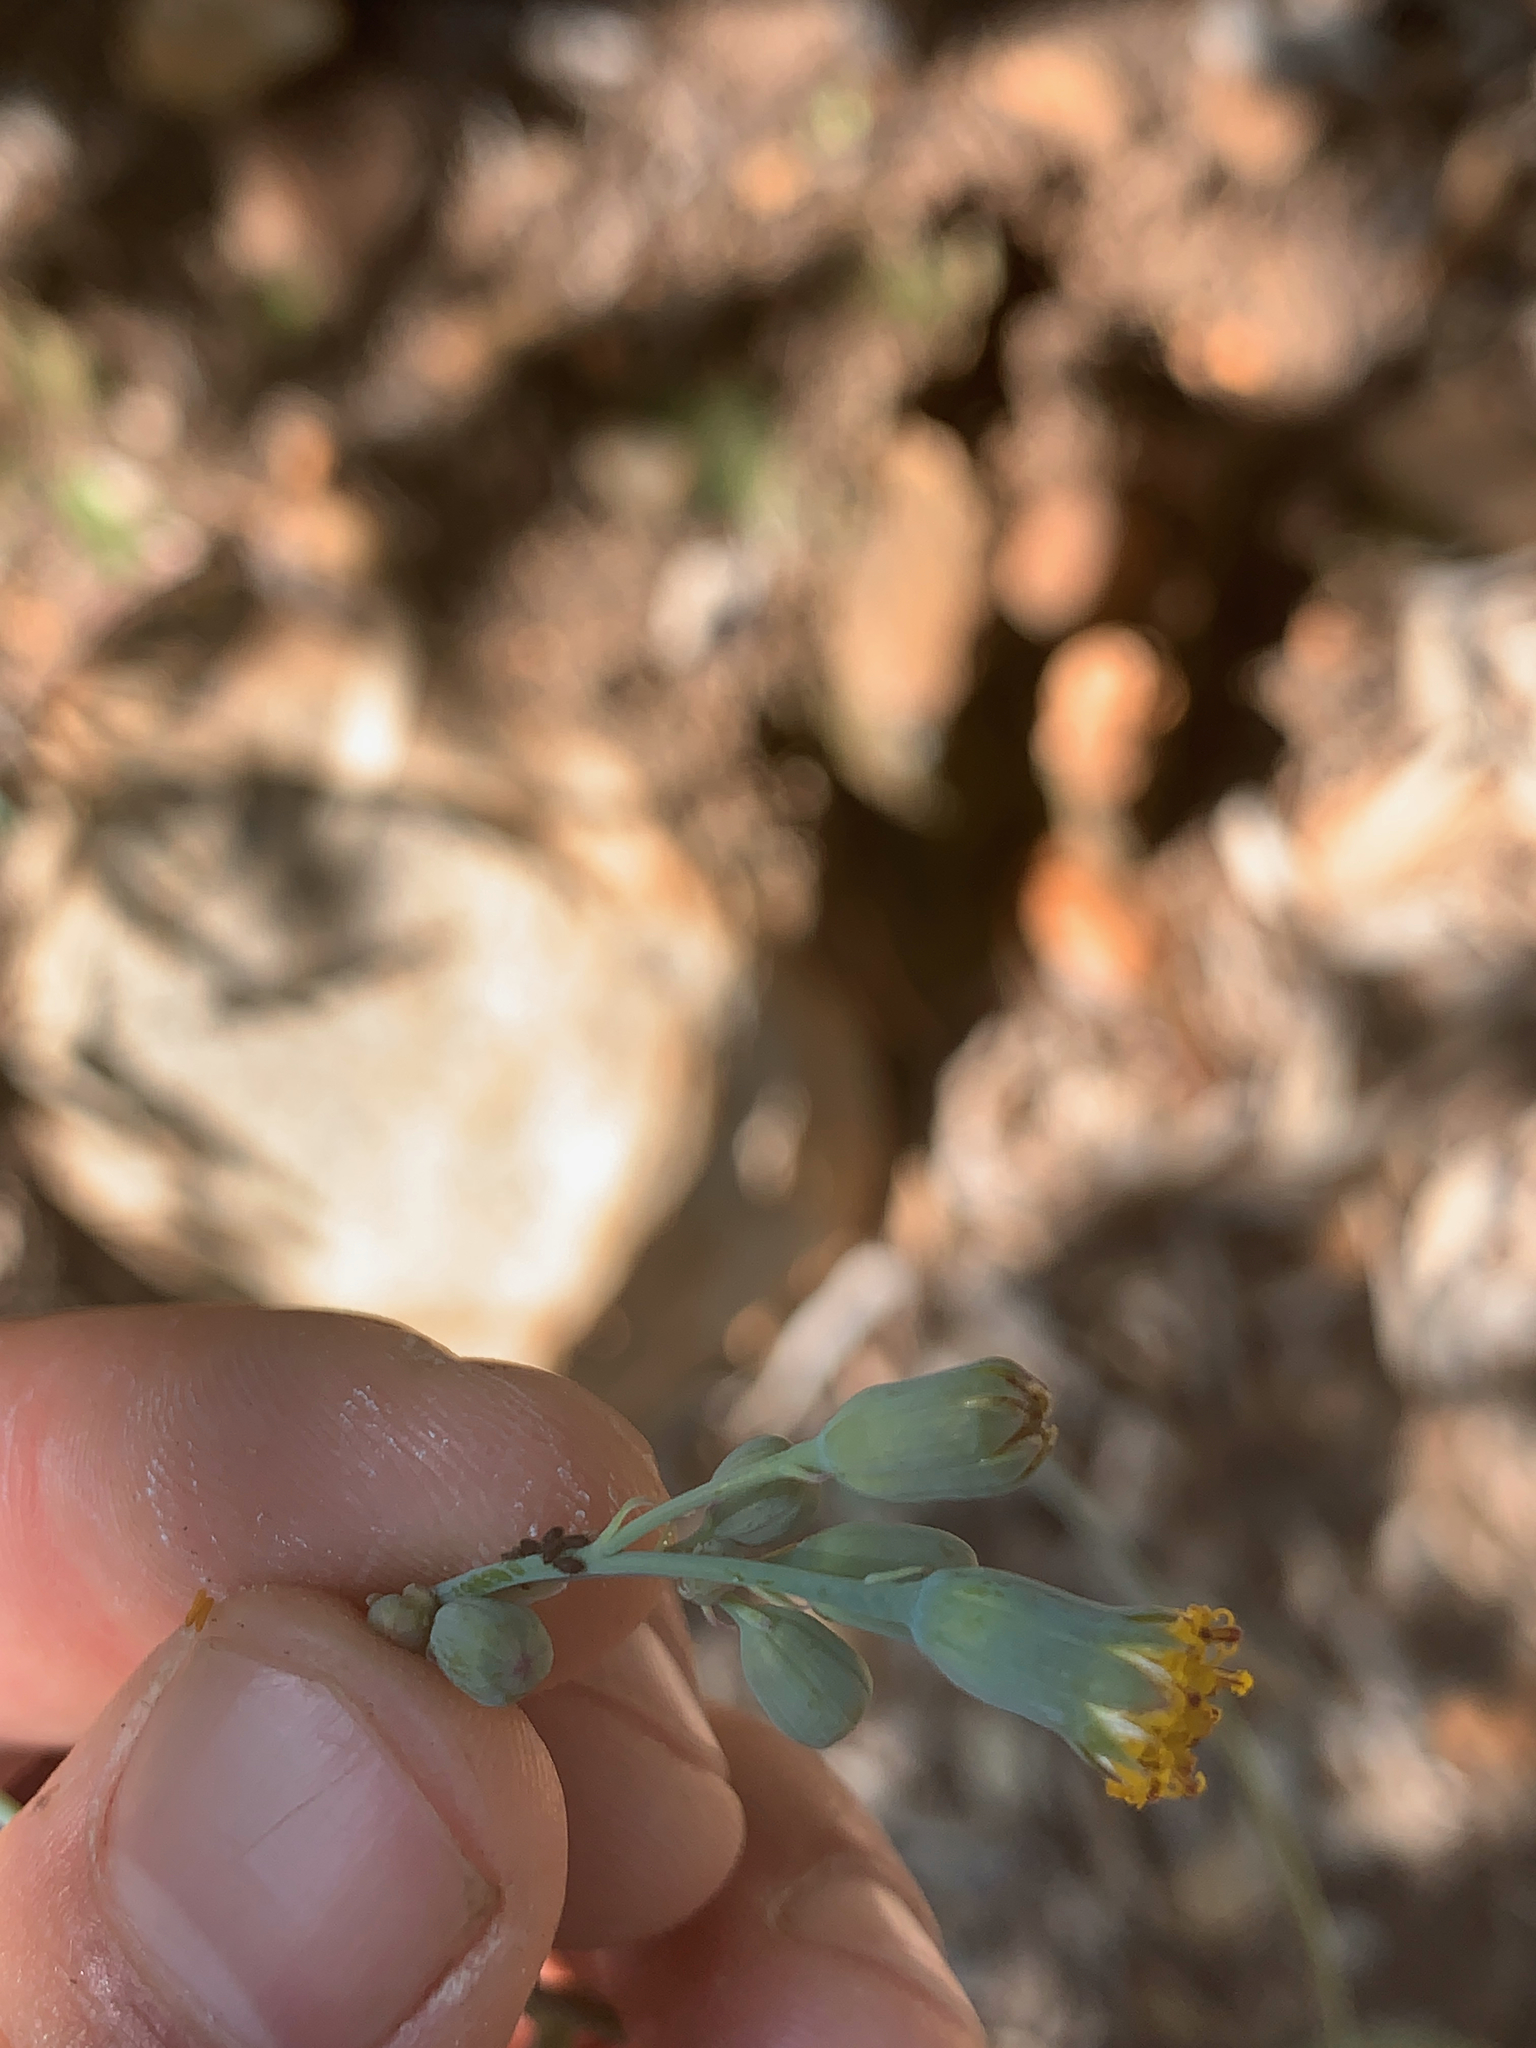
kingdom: Plantae
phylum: Tracheophyta
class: Magnoliopsida
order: Asterales
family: Asteraceae
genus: Senecio
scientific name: Senecio oxyriifolius
